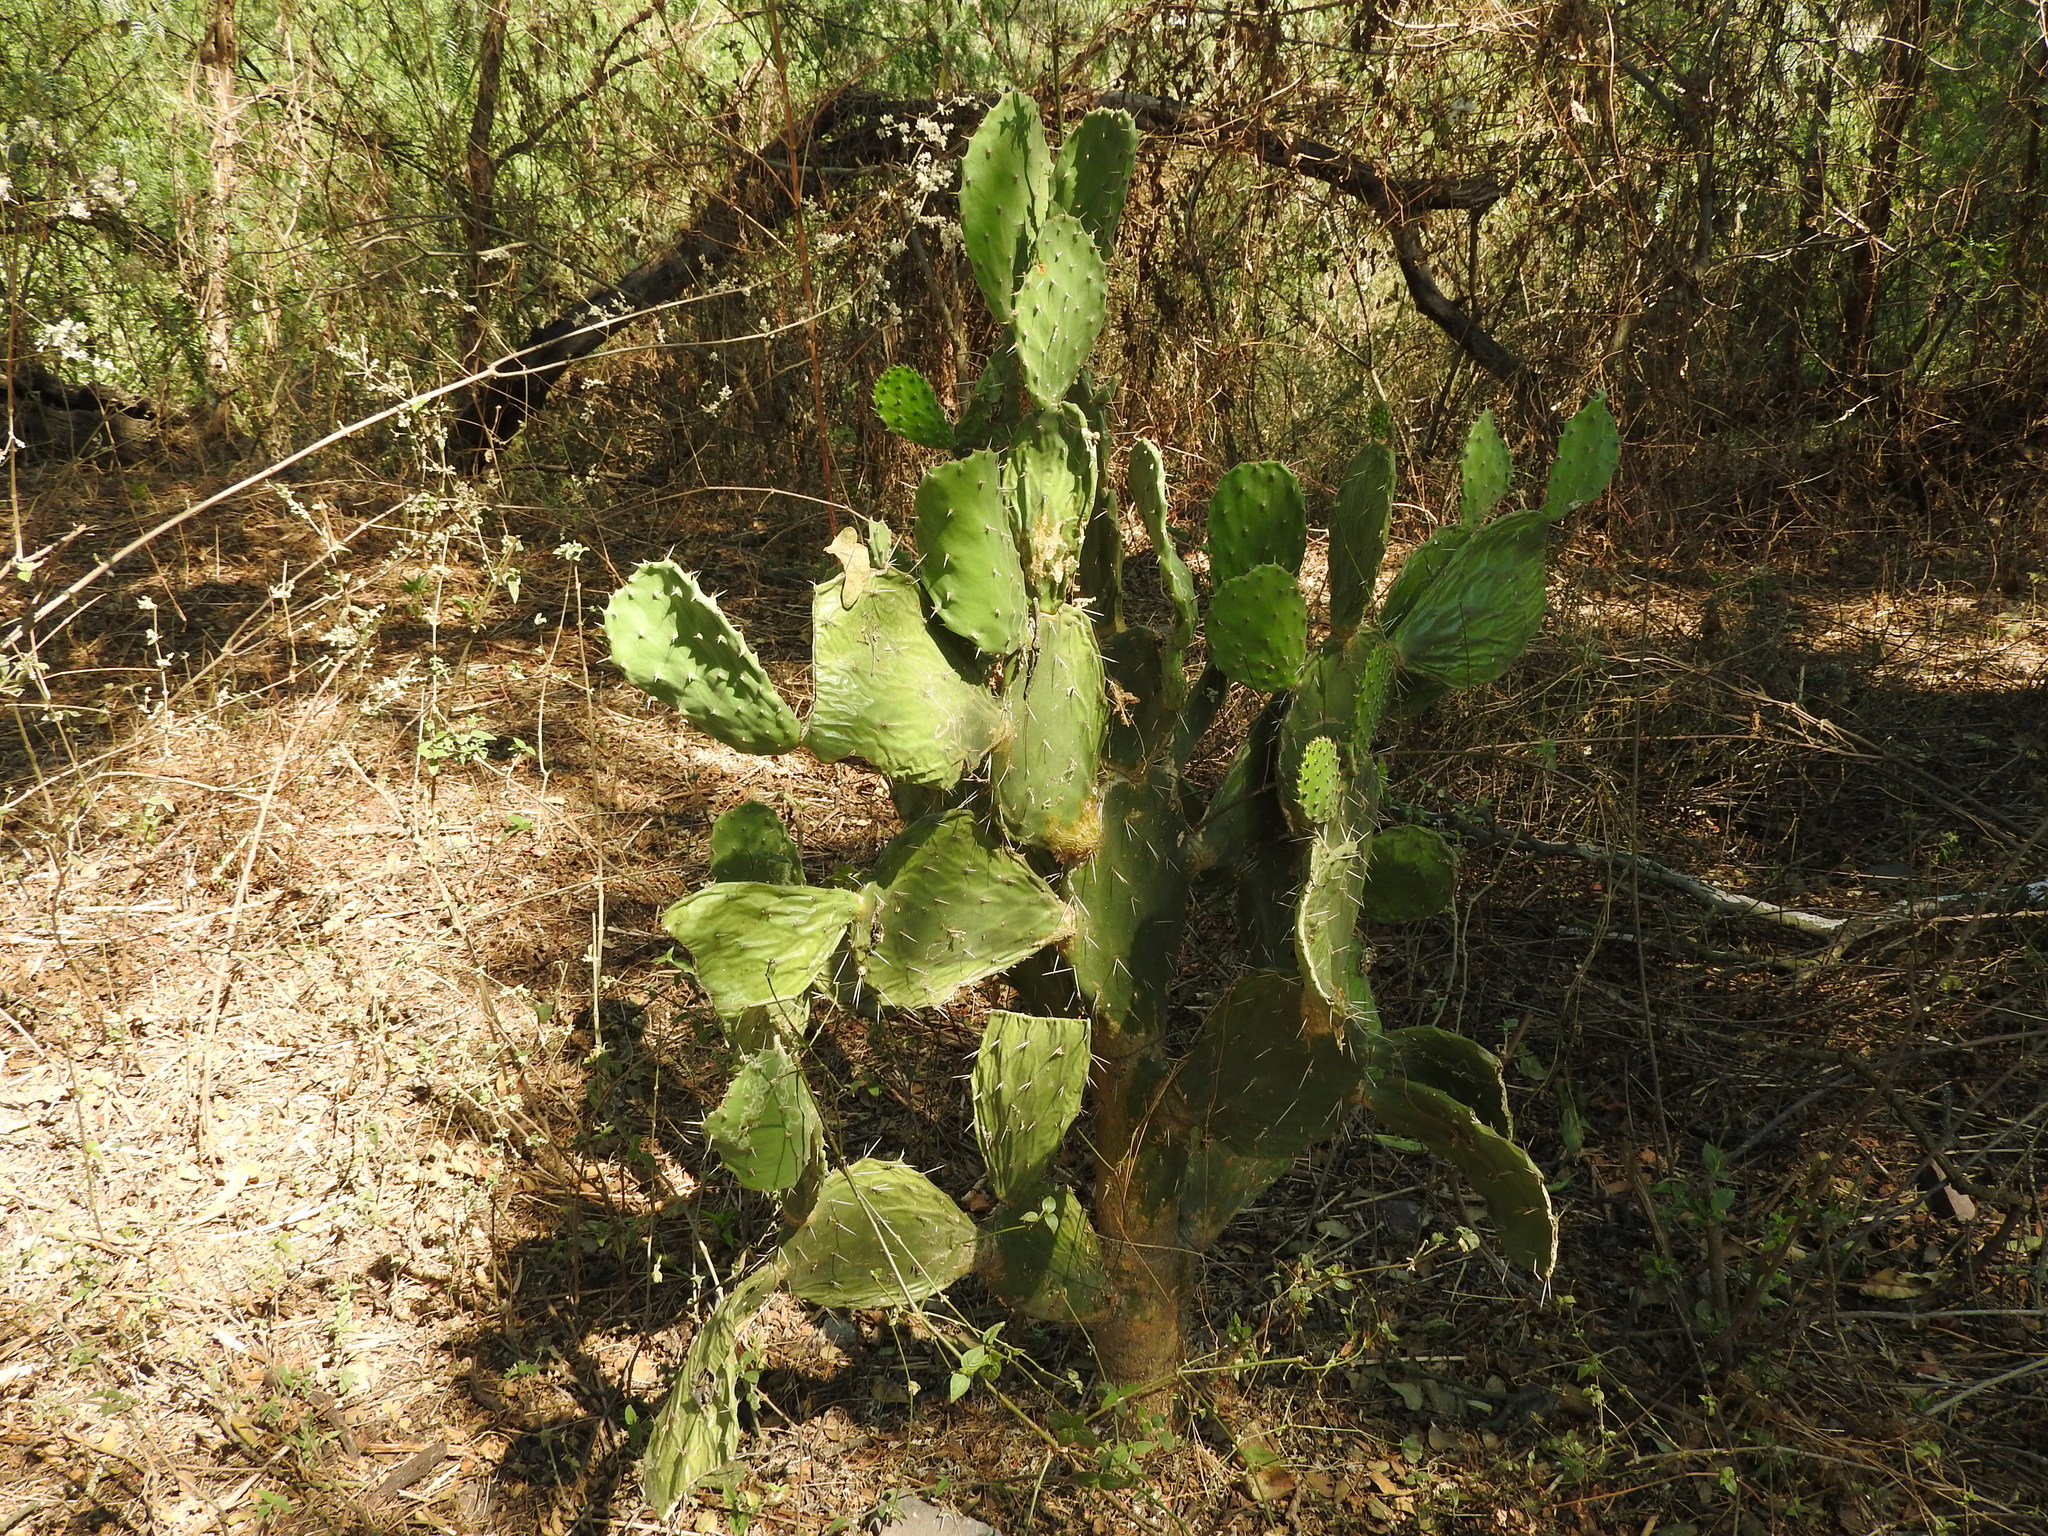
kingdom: Plantae
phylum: Tracheophyta
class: Magnoliopsida
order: Caryophyllales
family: Cactaceae
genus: Opuntia
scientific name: Opuntia lasiacantha
